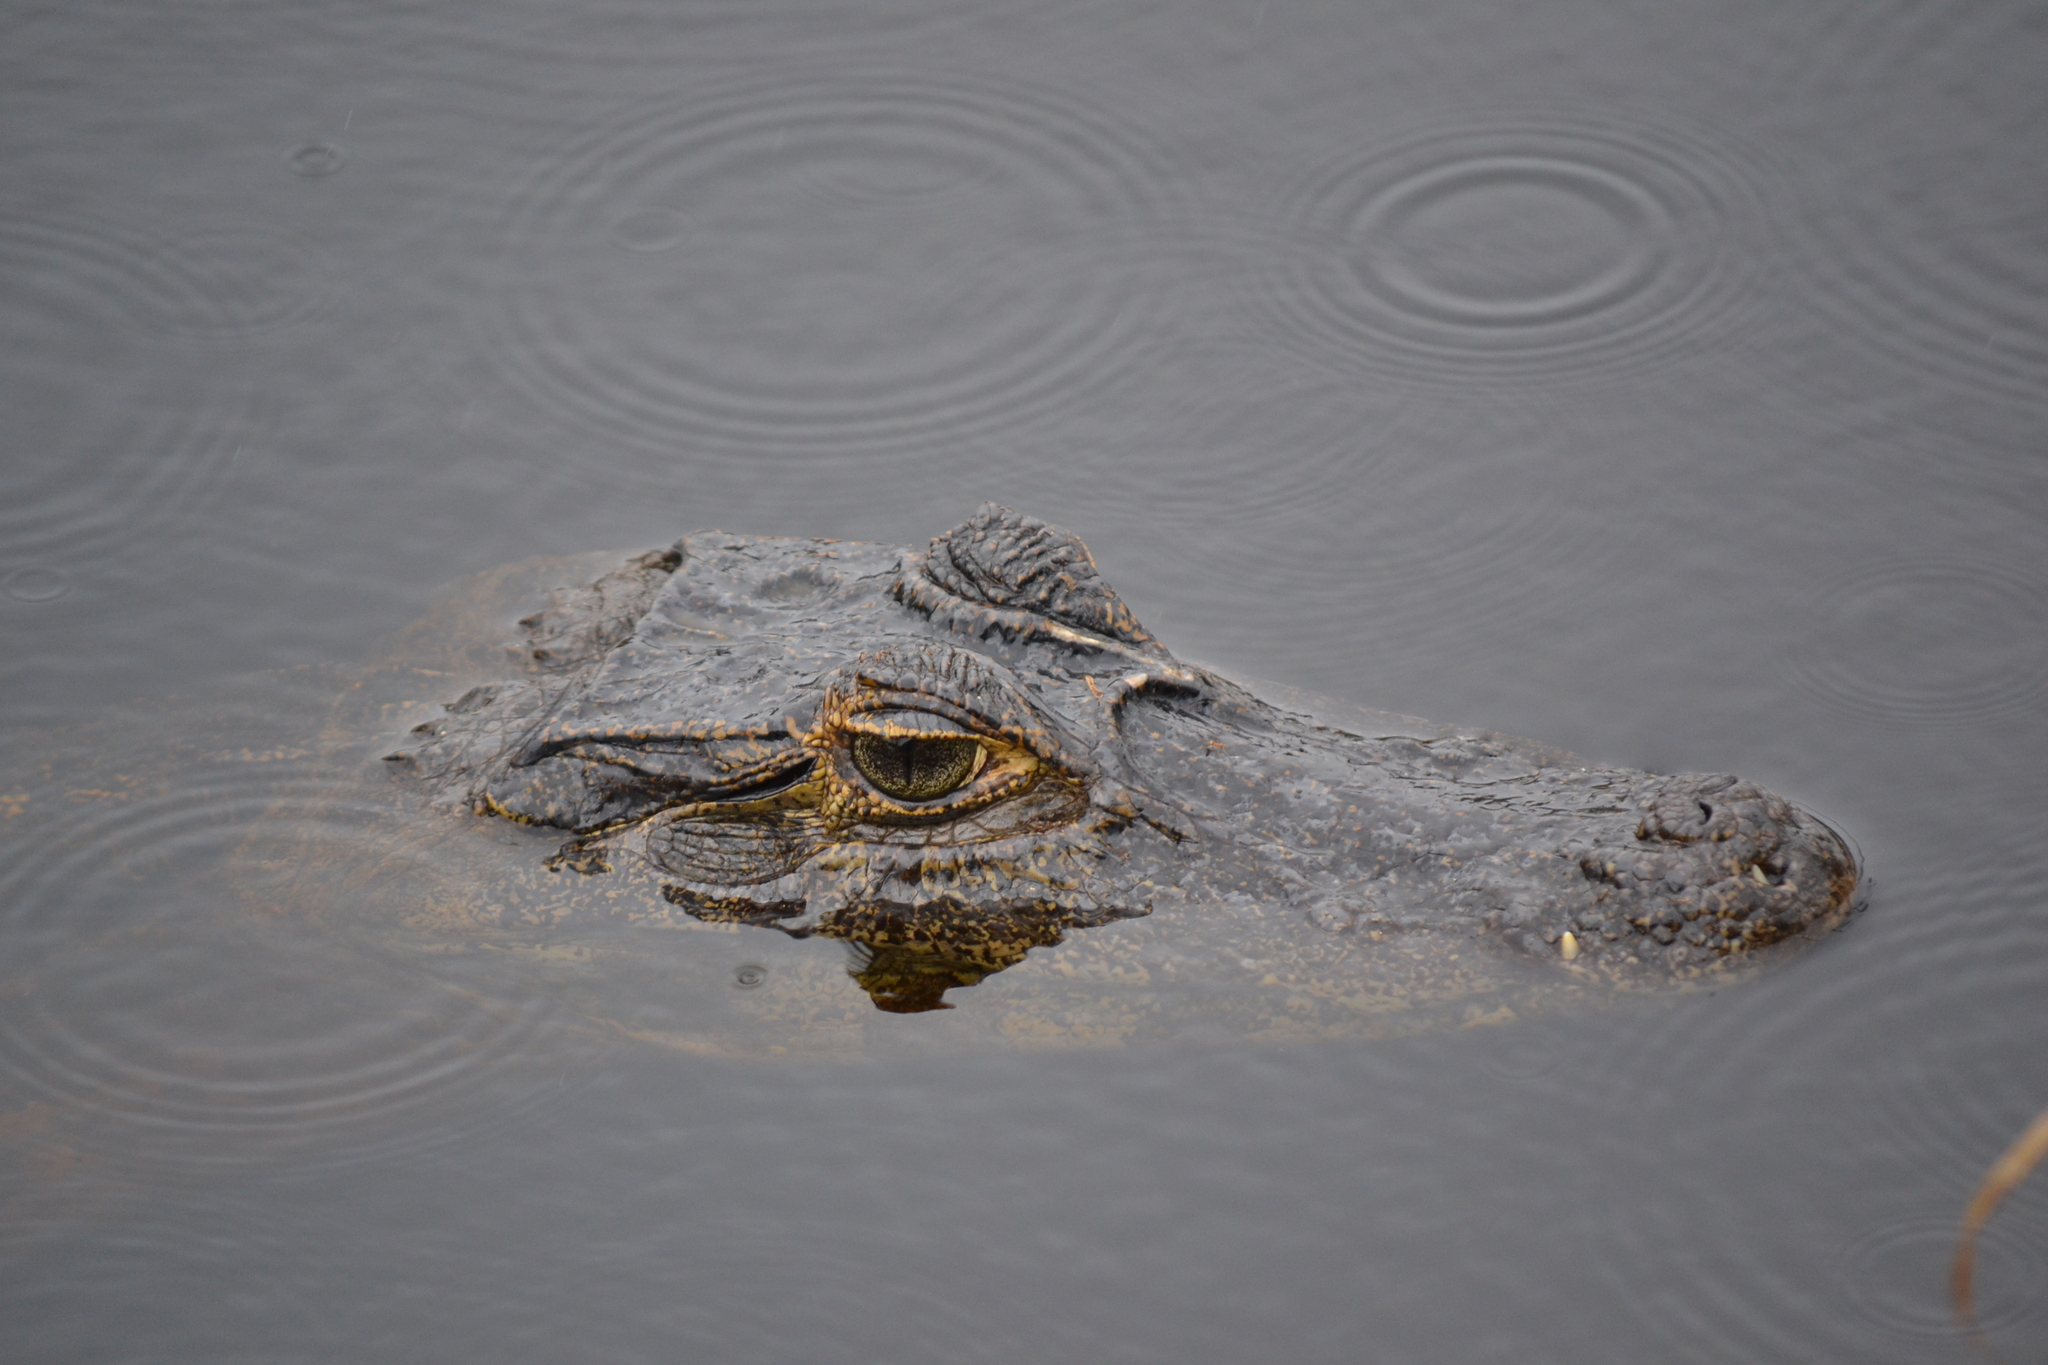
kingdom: Animalia
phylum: Chordata
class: Crocodylia
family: Alligatoridae
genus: Caiman
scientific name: Caiman yacare
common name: Yacare caiman
